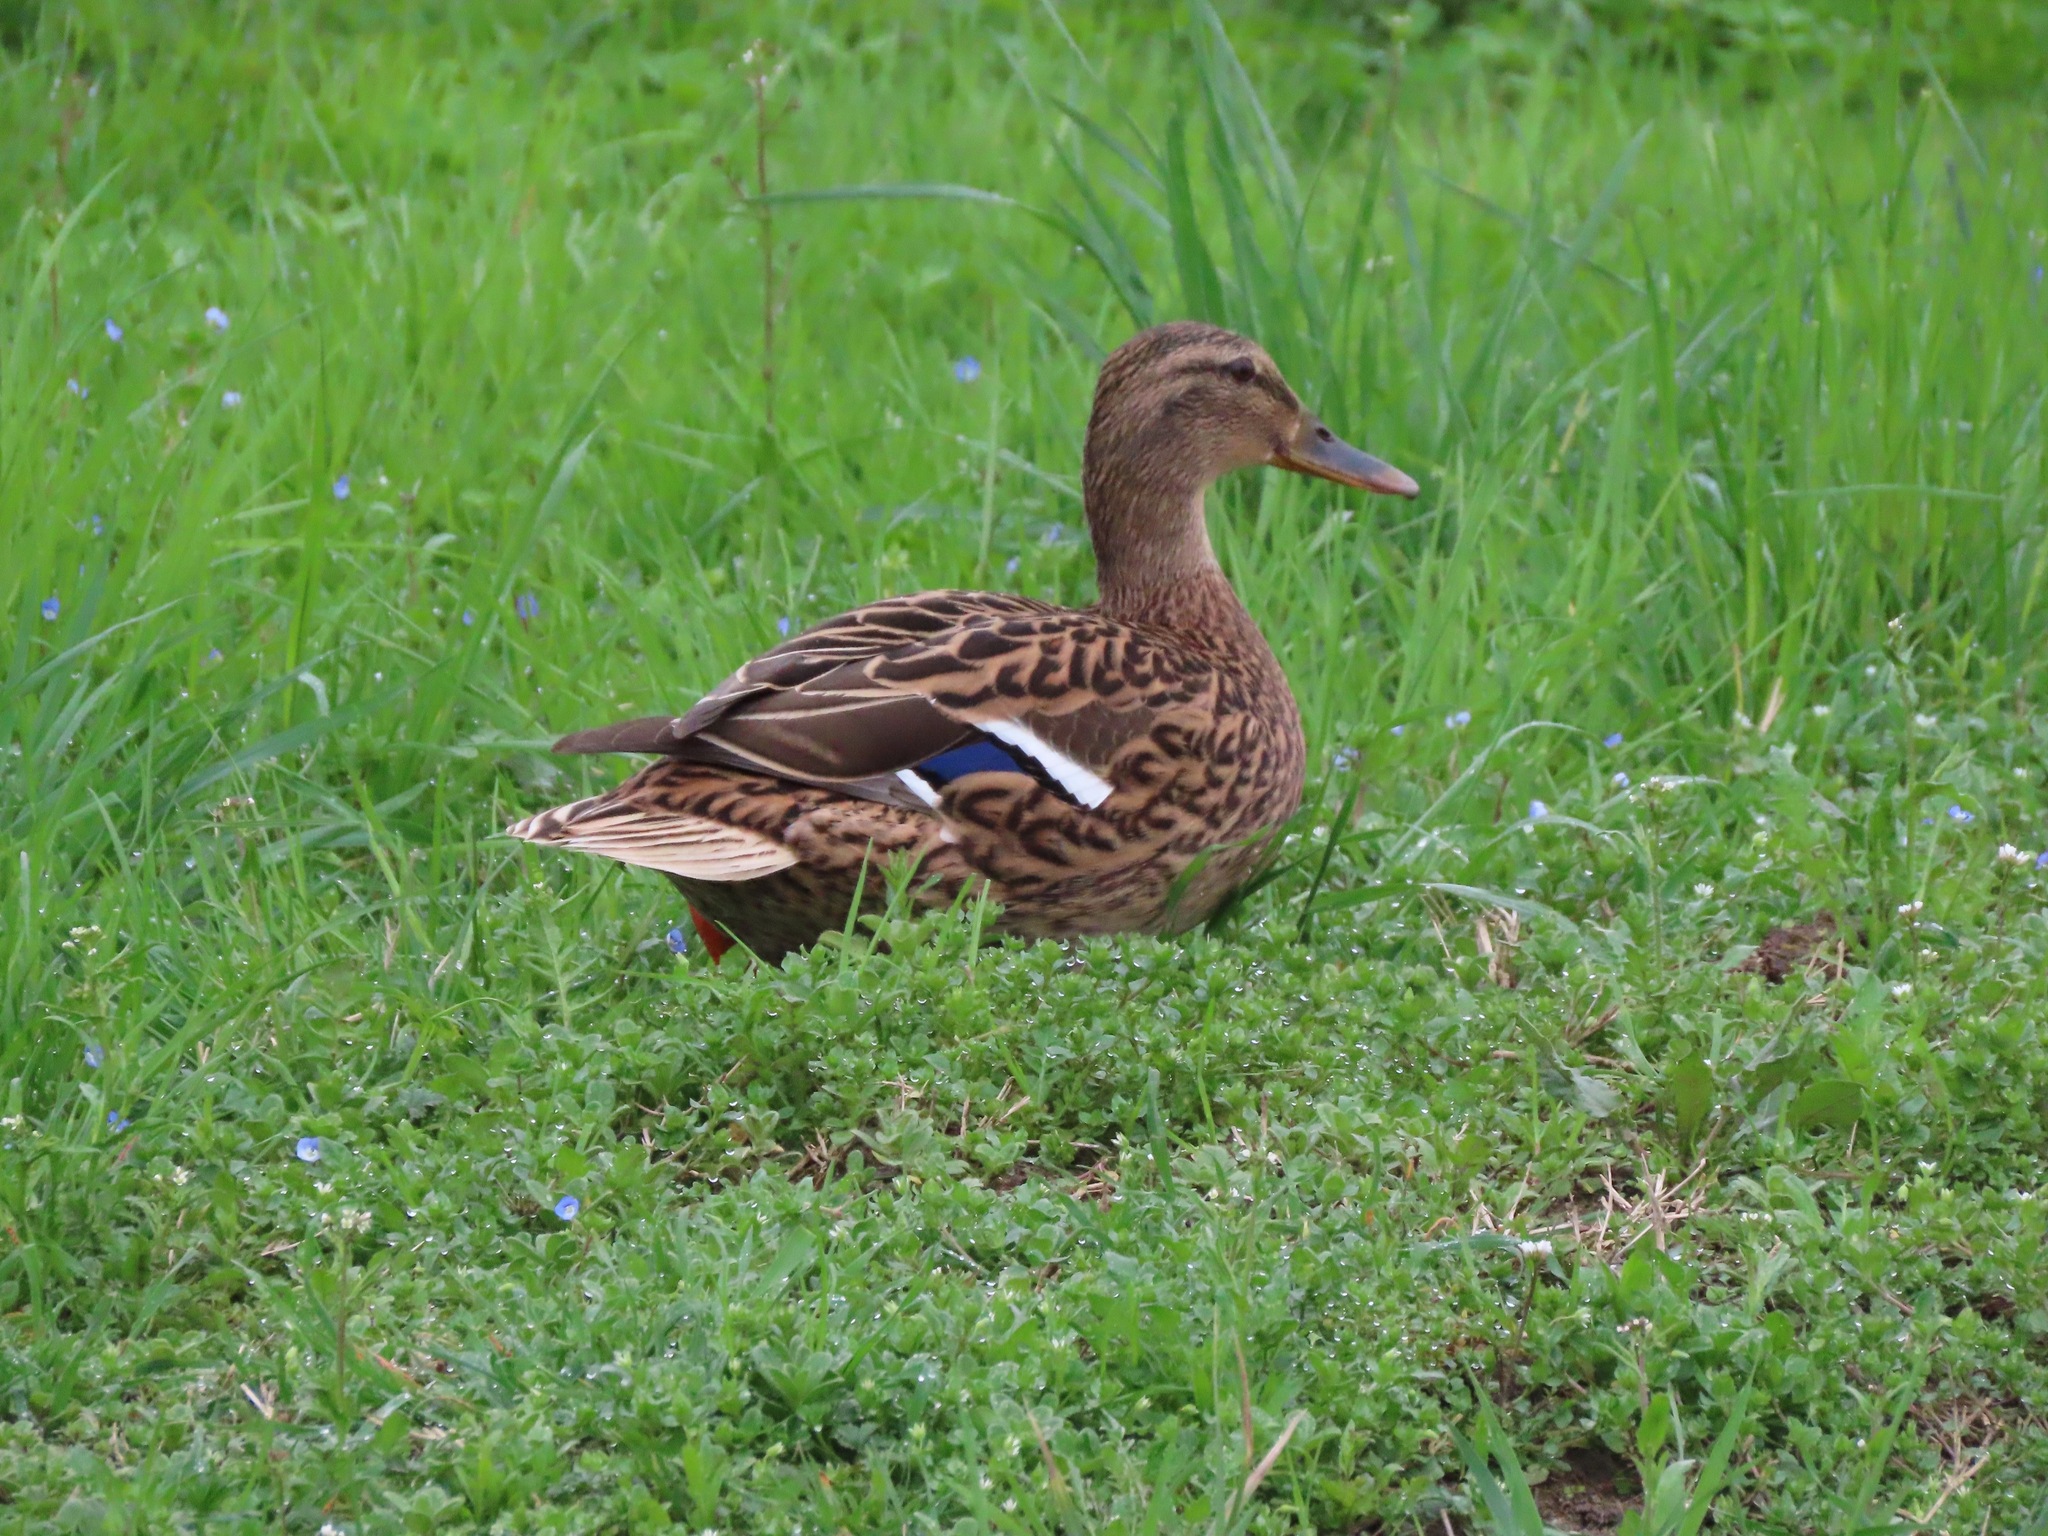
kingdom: Animalia
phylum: Chordata
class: Aves
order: Anseriformes
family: Anatidae
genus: Anas
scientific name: Anas platyrhynchos
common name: Mallard
